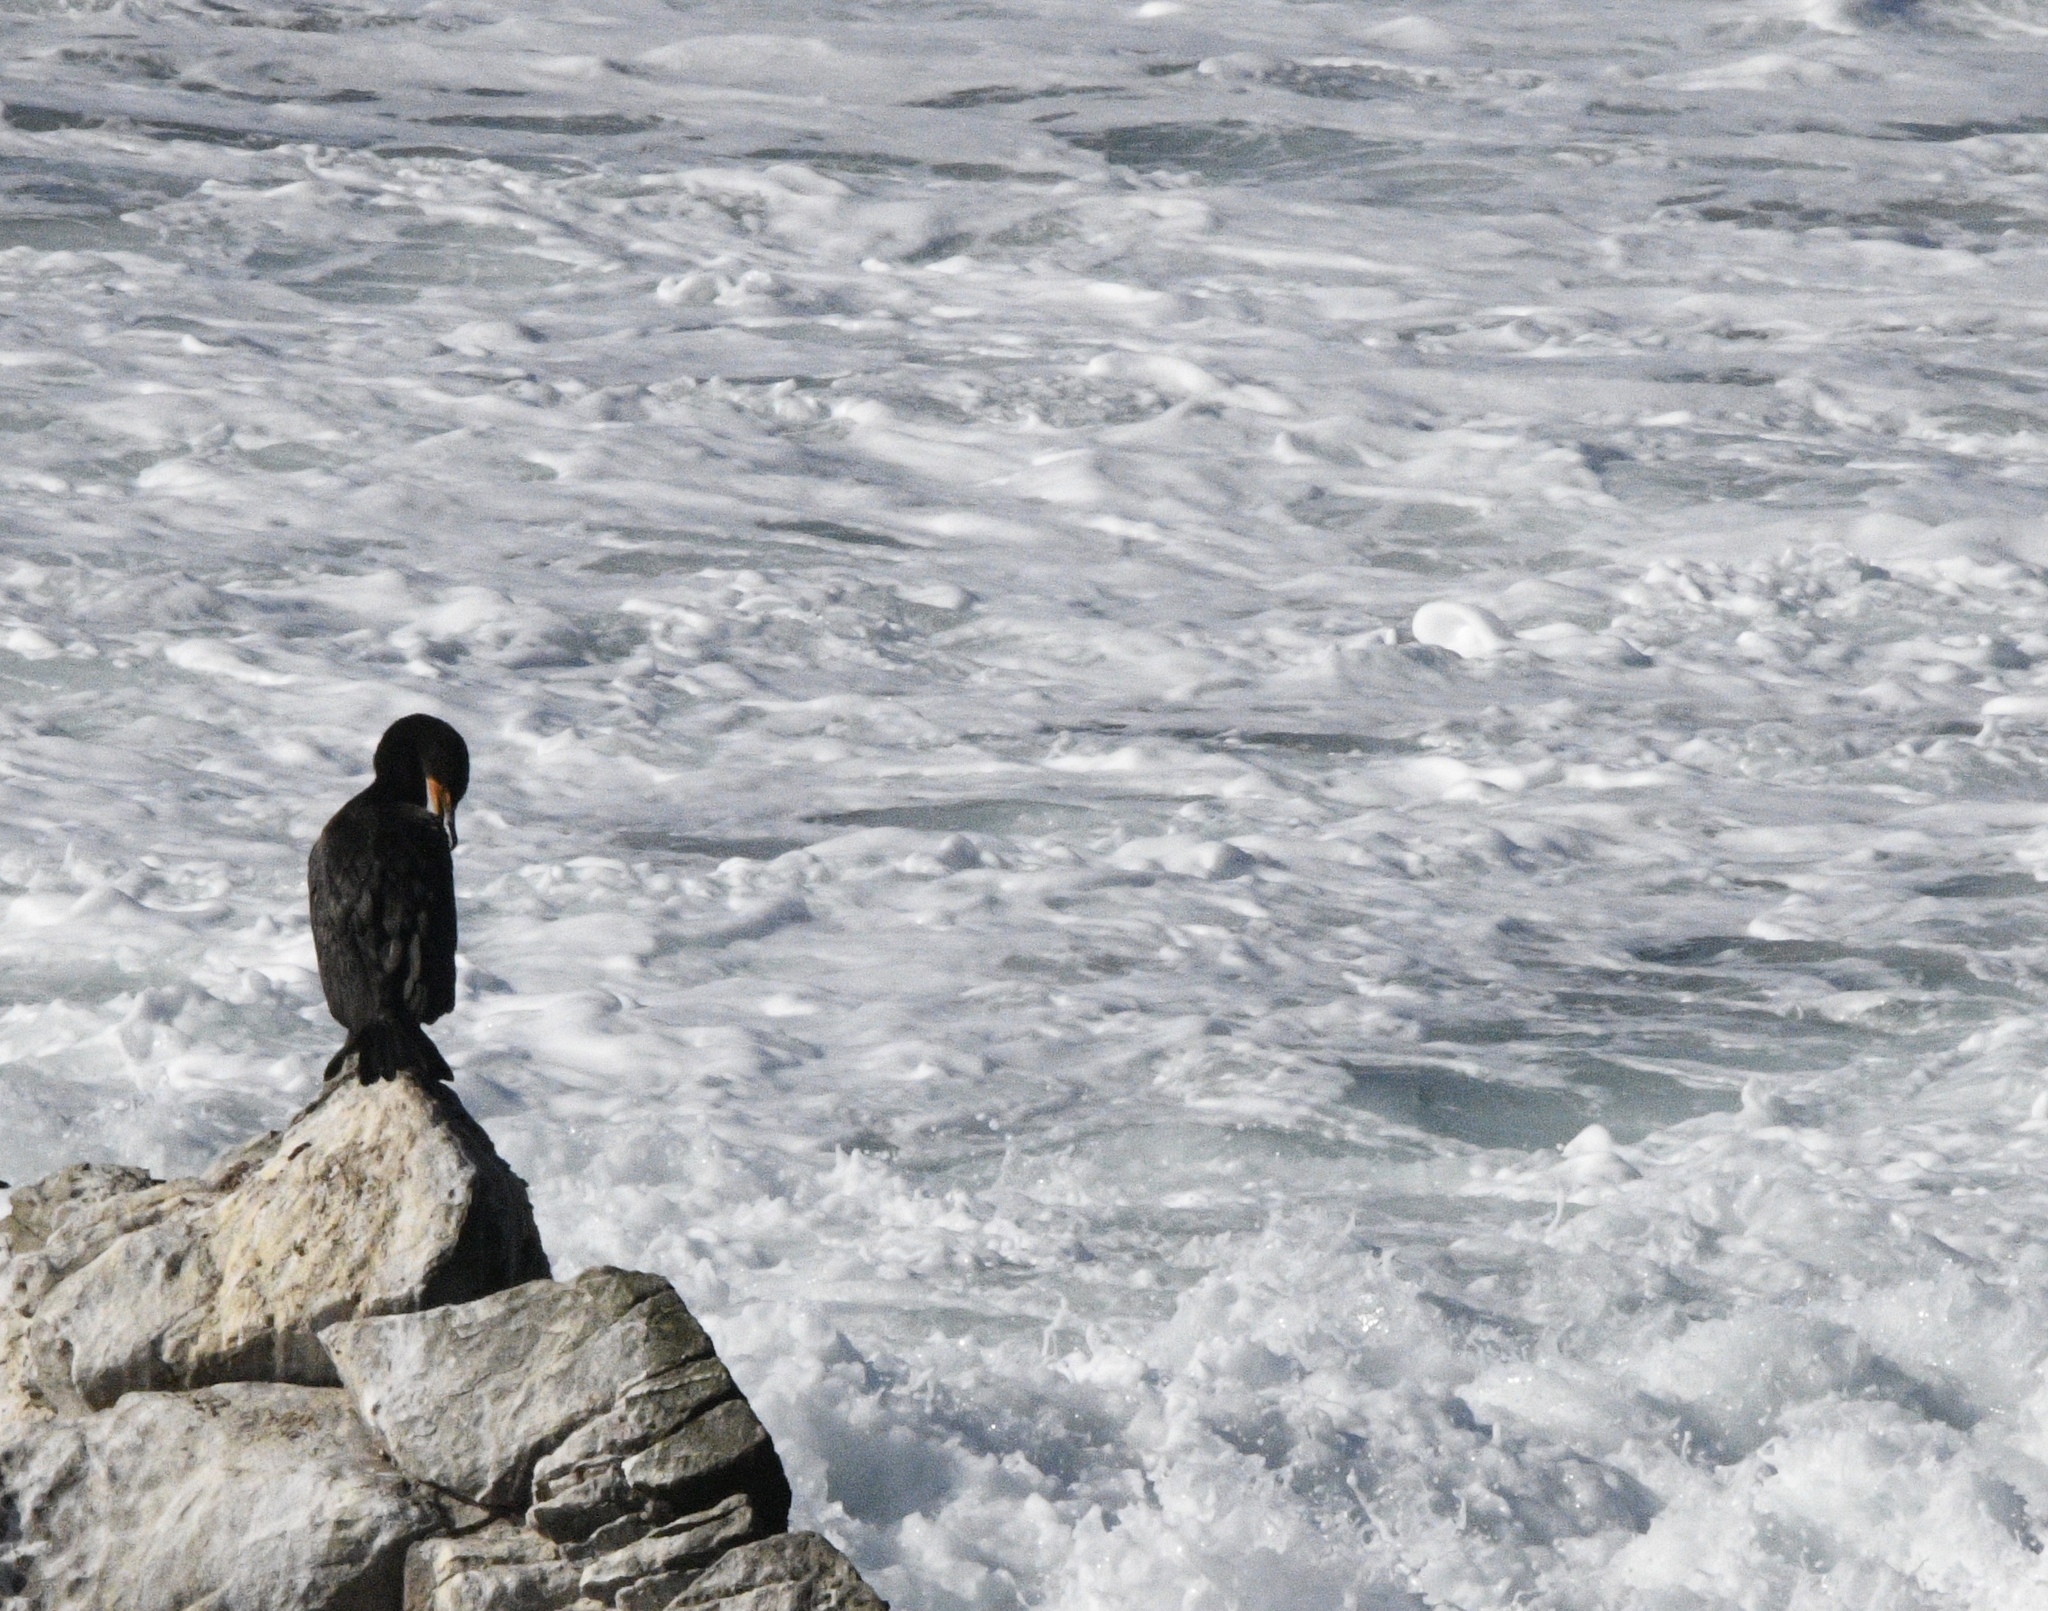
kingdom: Animalia
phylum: Chordata
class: Aves
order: Suliformes
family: Phalacrocoracidae
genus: Phalacrocorax
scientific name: Phalacrocorax auritus
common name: Double-crested cormorant
